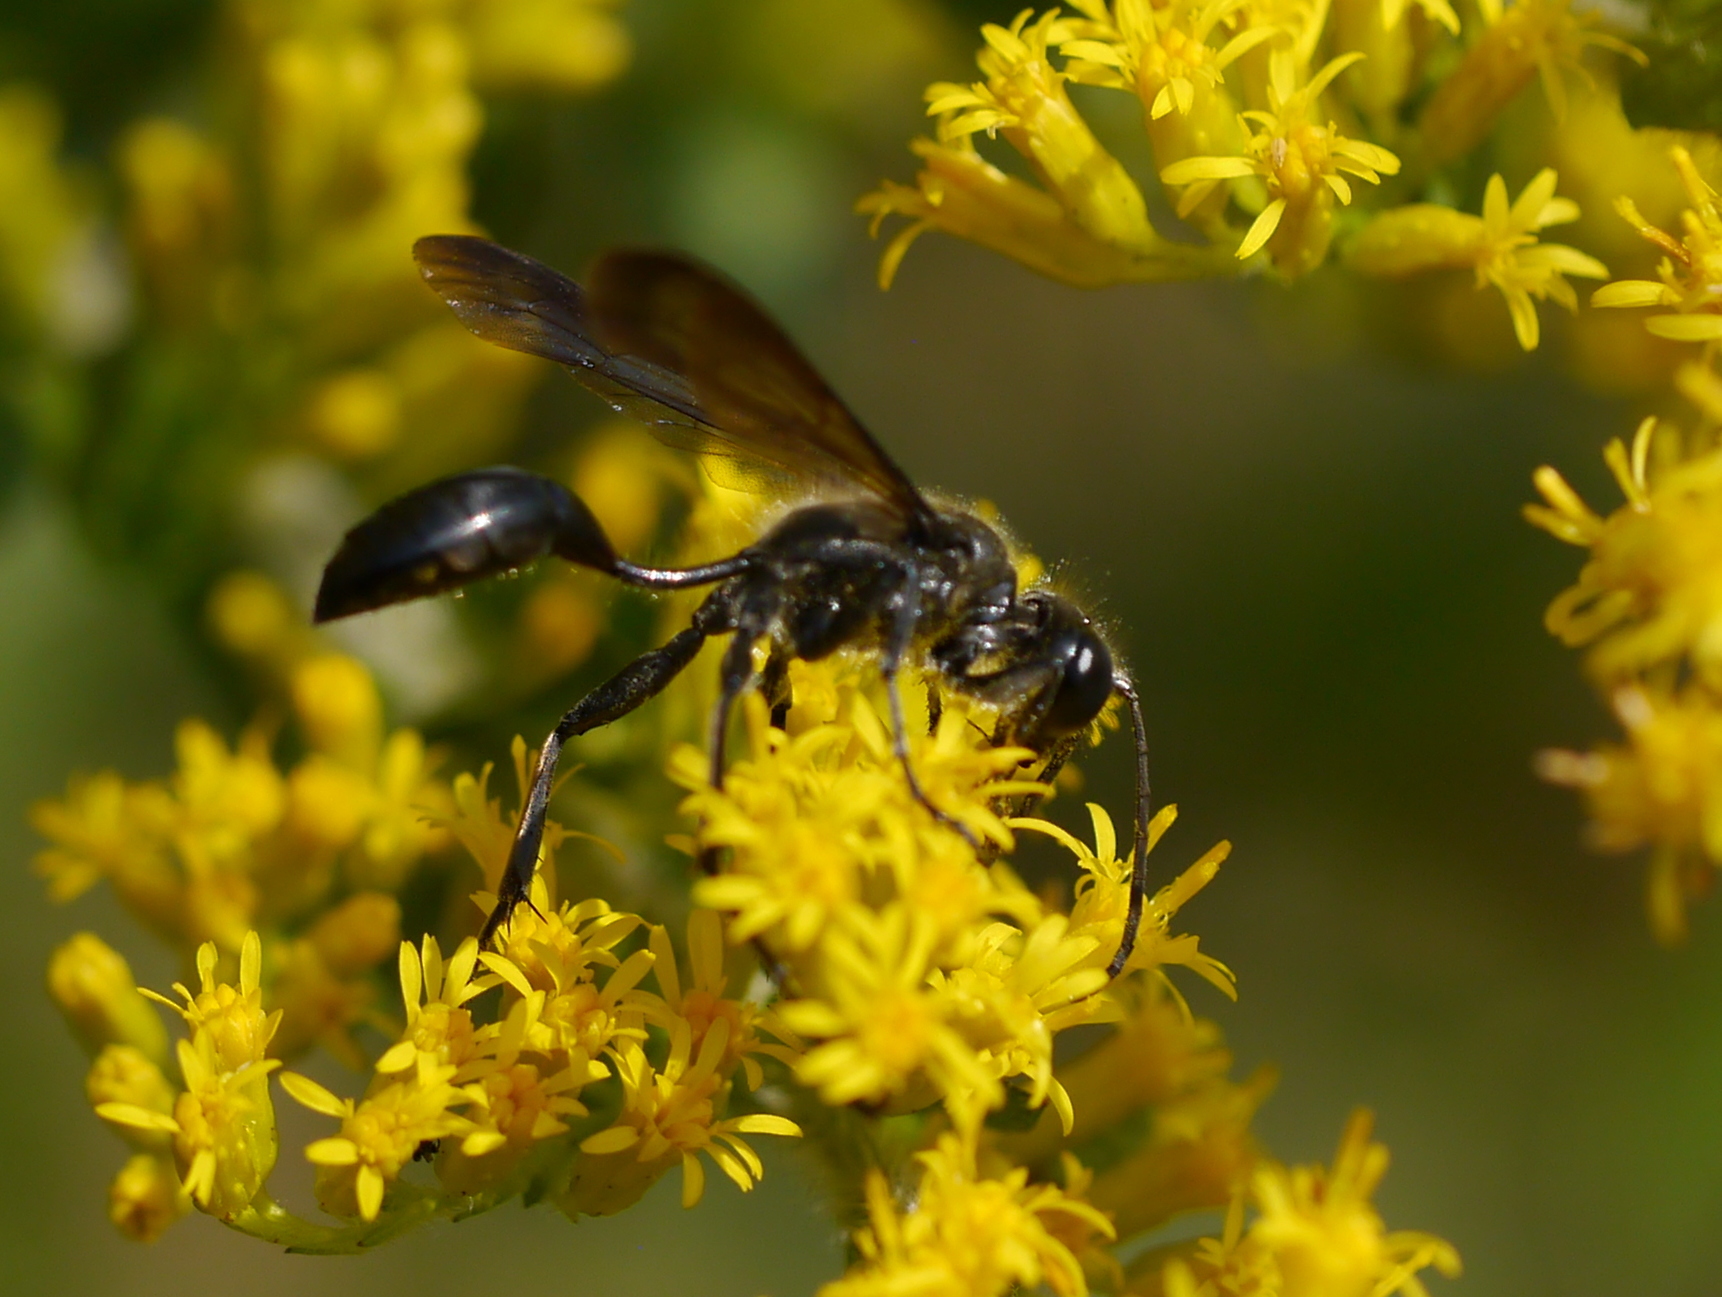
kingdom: Animalia
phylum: Arthropoda
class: Insecta
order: Hymenoptera
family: Sphecidae
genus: Isodontia
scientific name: Isodontia mexicana
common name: Mud dauber
